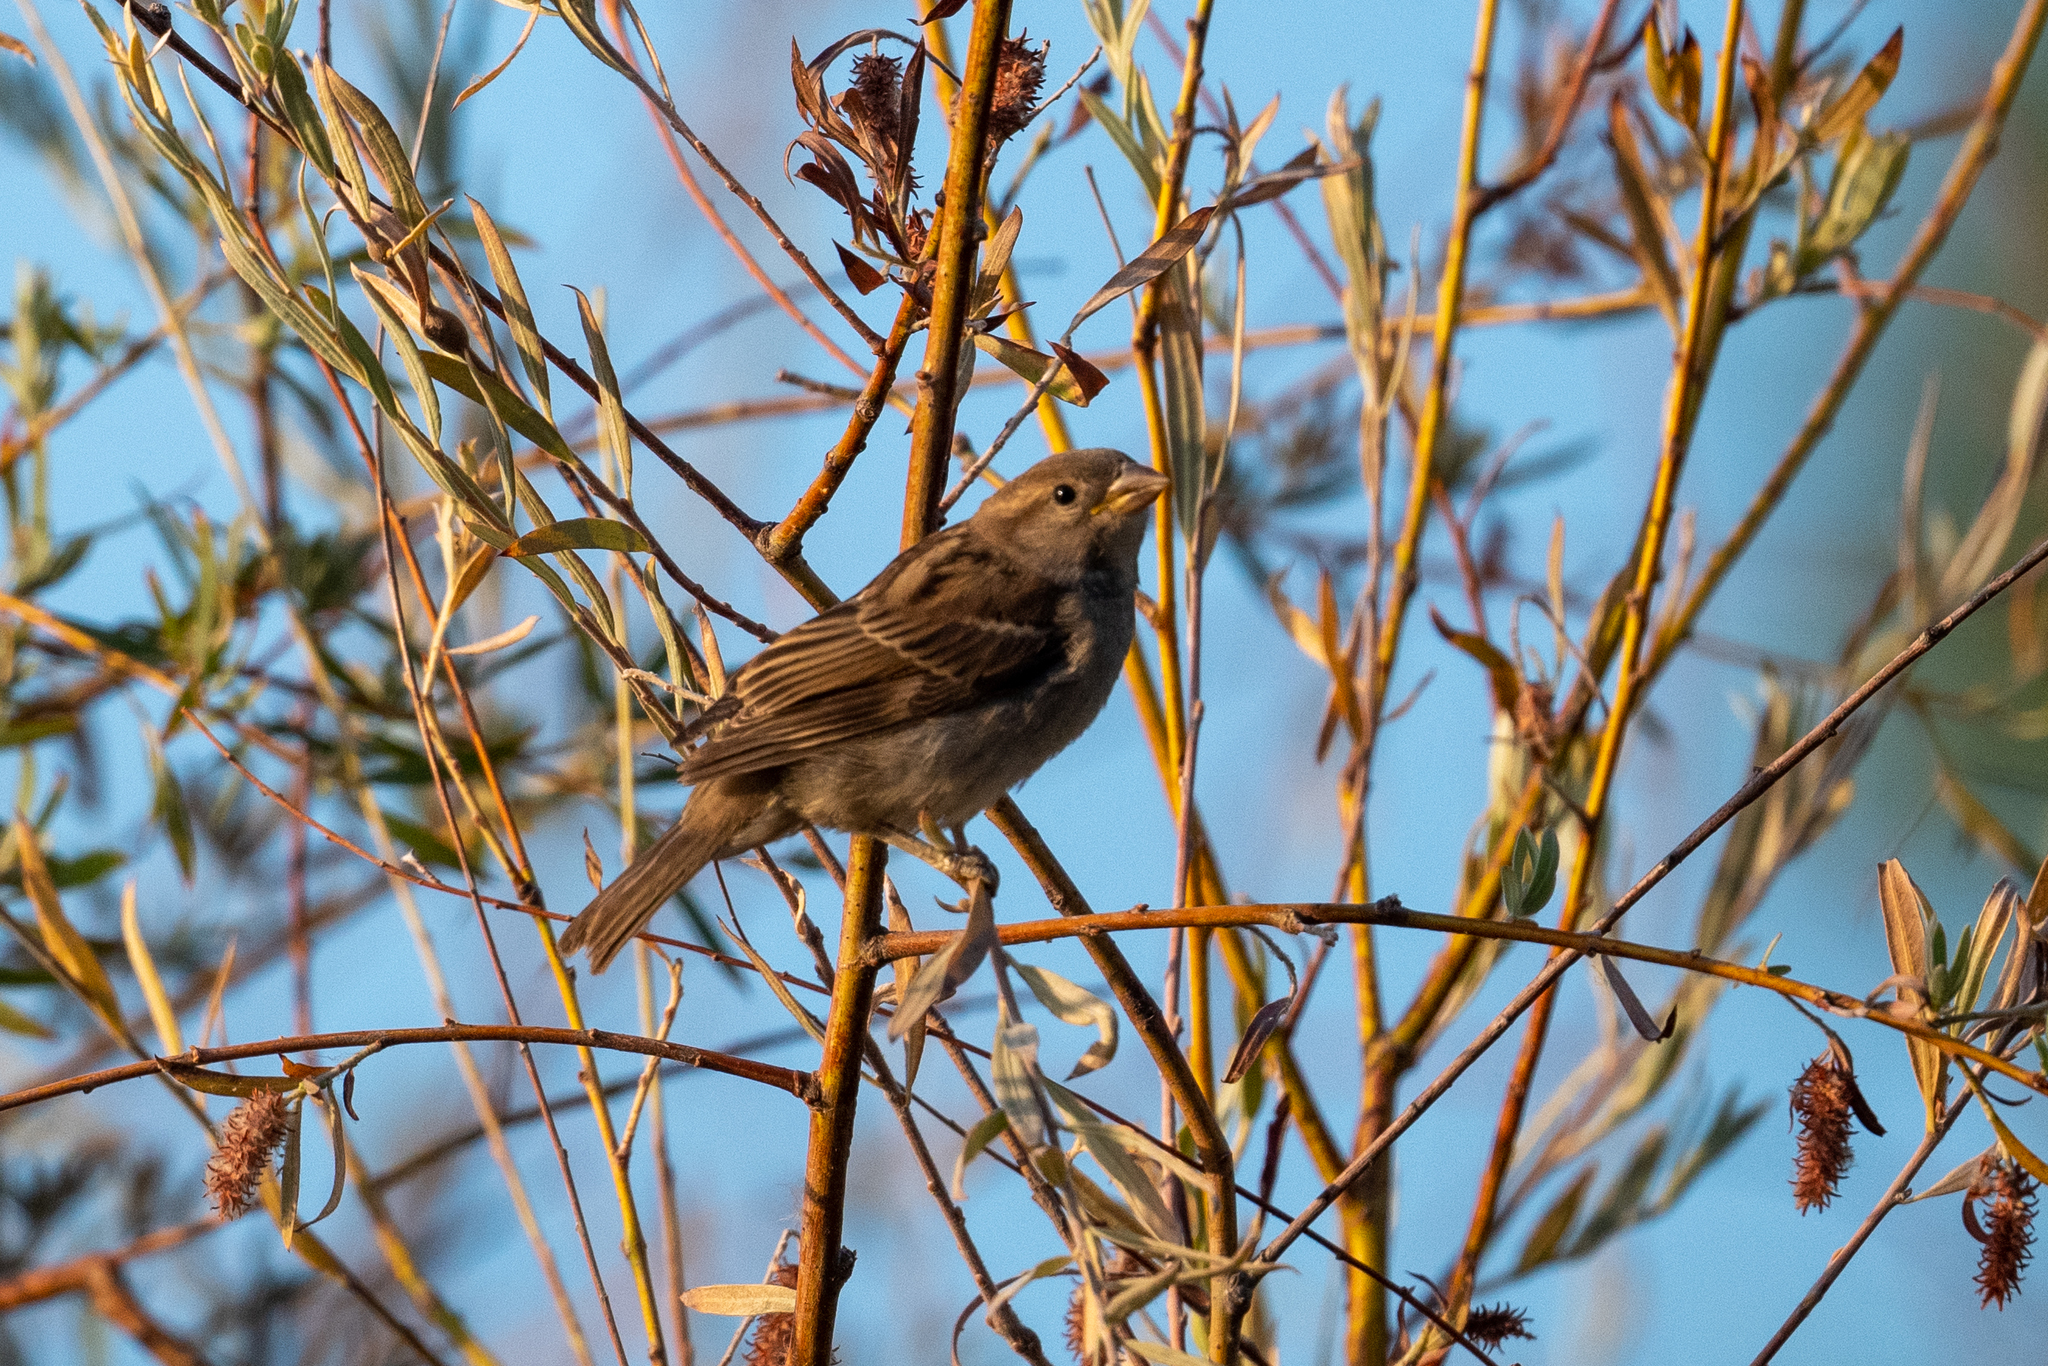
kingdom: Animalia
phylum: Chordata
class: Aves
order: Passeriformes
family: Passeridae
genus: Passer
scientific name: Passer domesticus
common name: House sparrow
